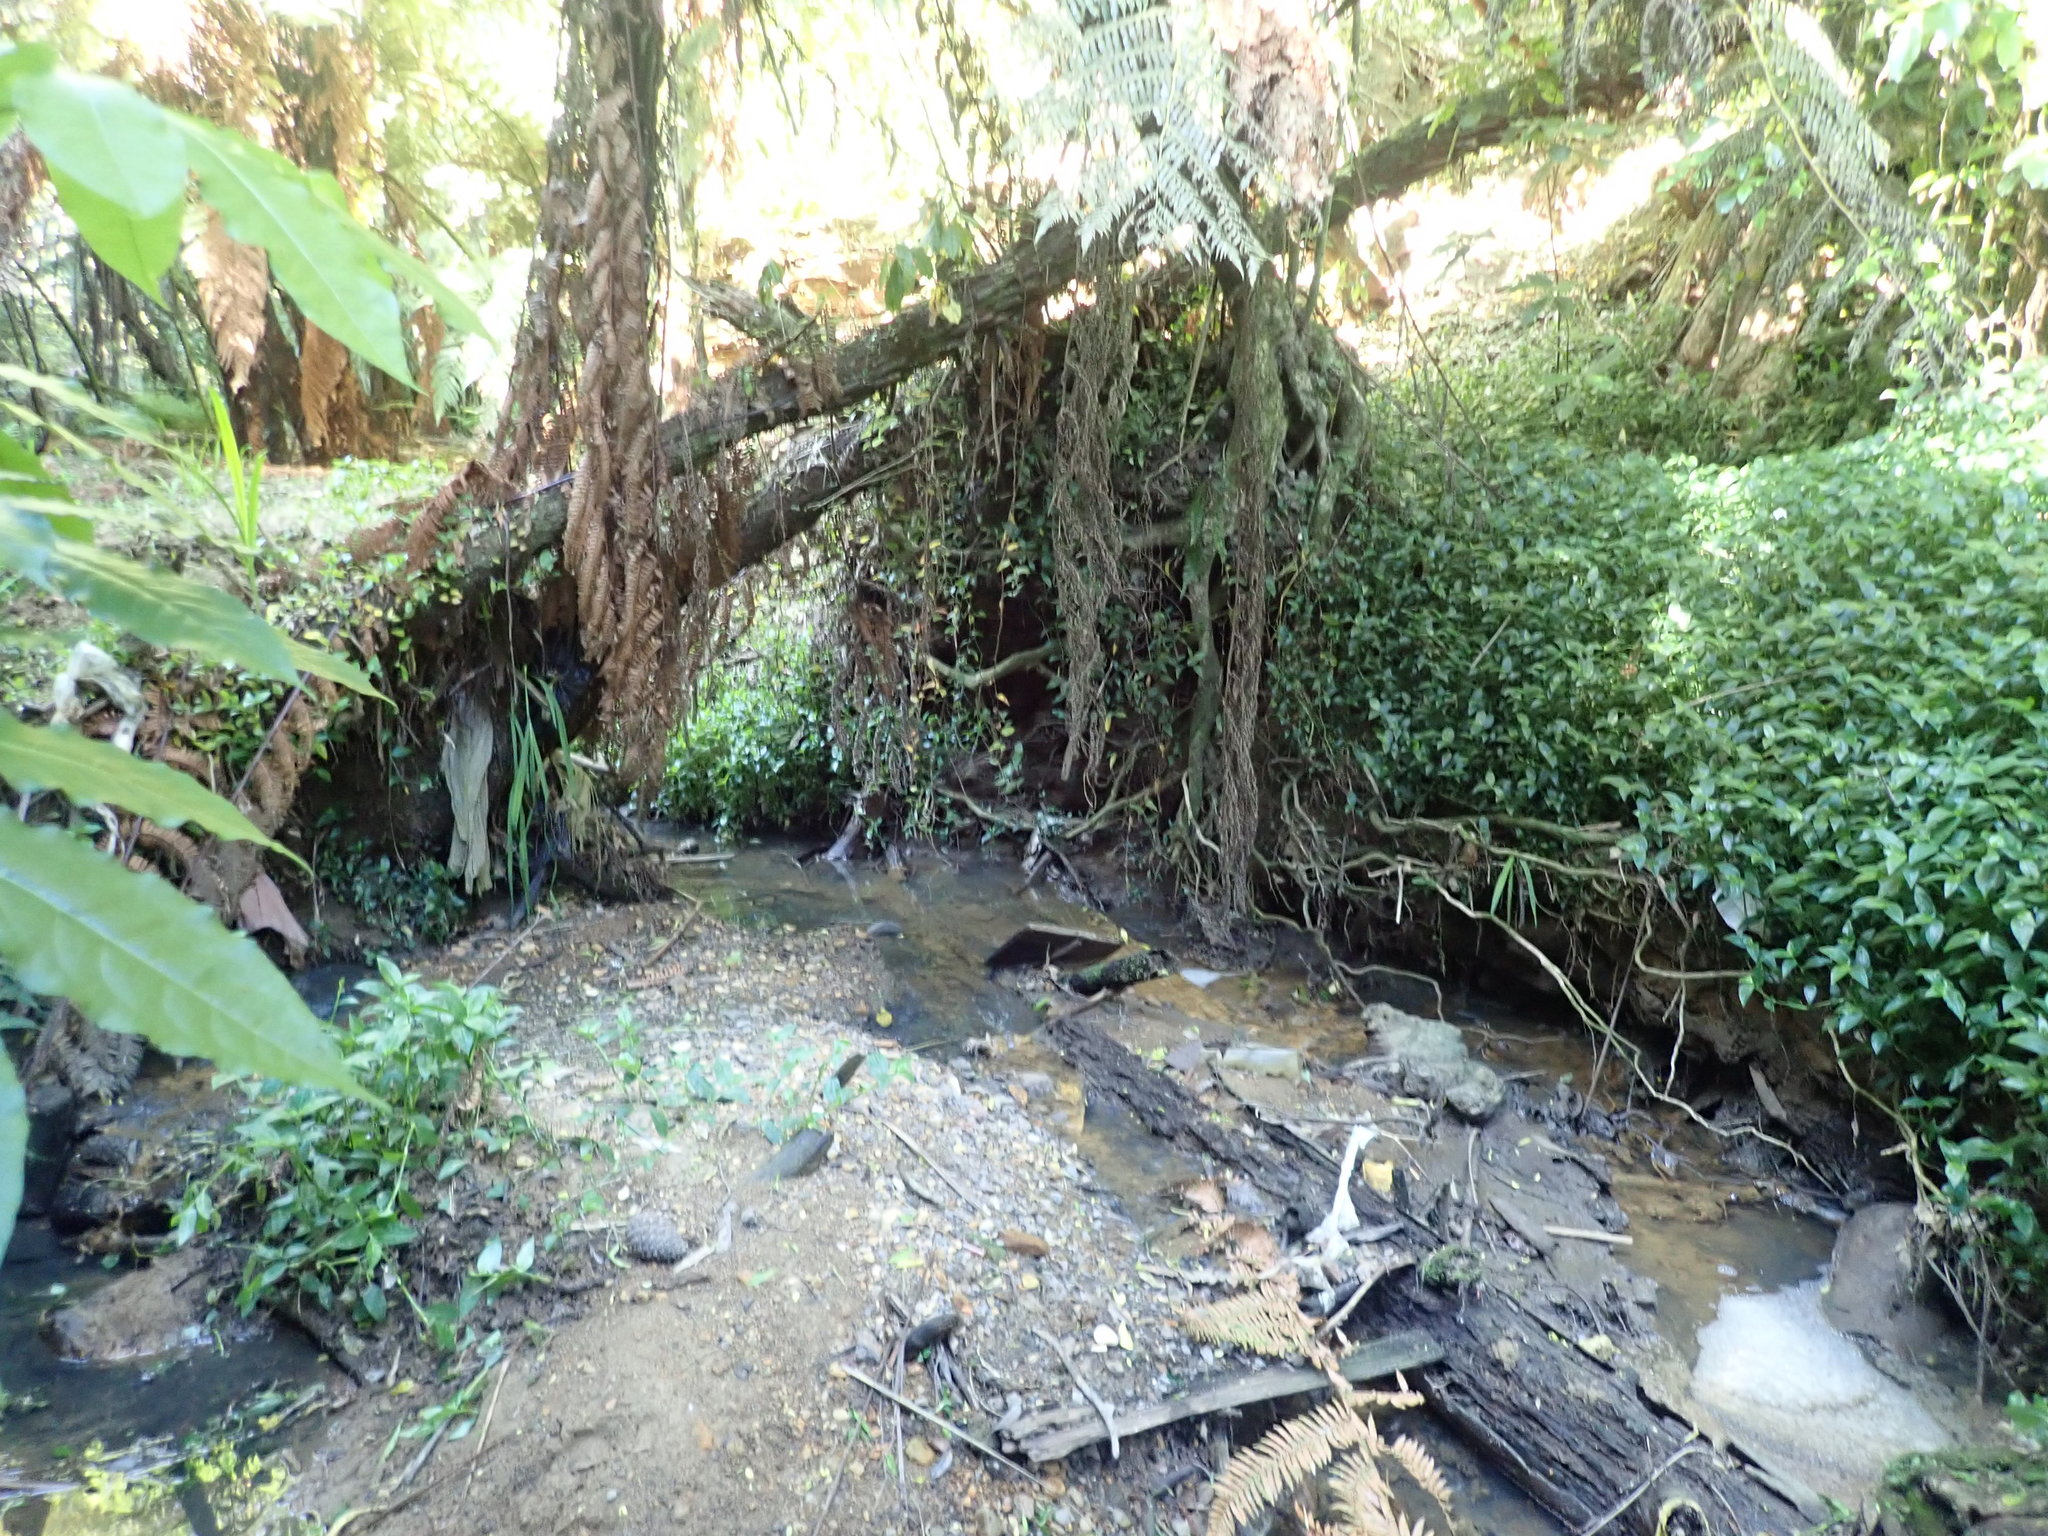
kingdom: Plantae
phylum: Tracheophyta
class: Liliopsida
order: Commelinales
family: Commelinaceae
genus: Tradescantia
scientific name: Tradescantia fluminensis
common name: Wandering-jew
